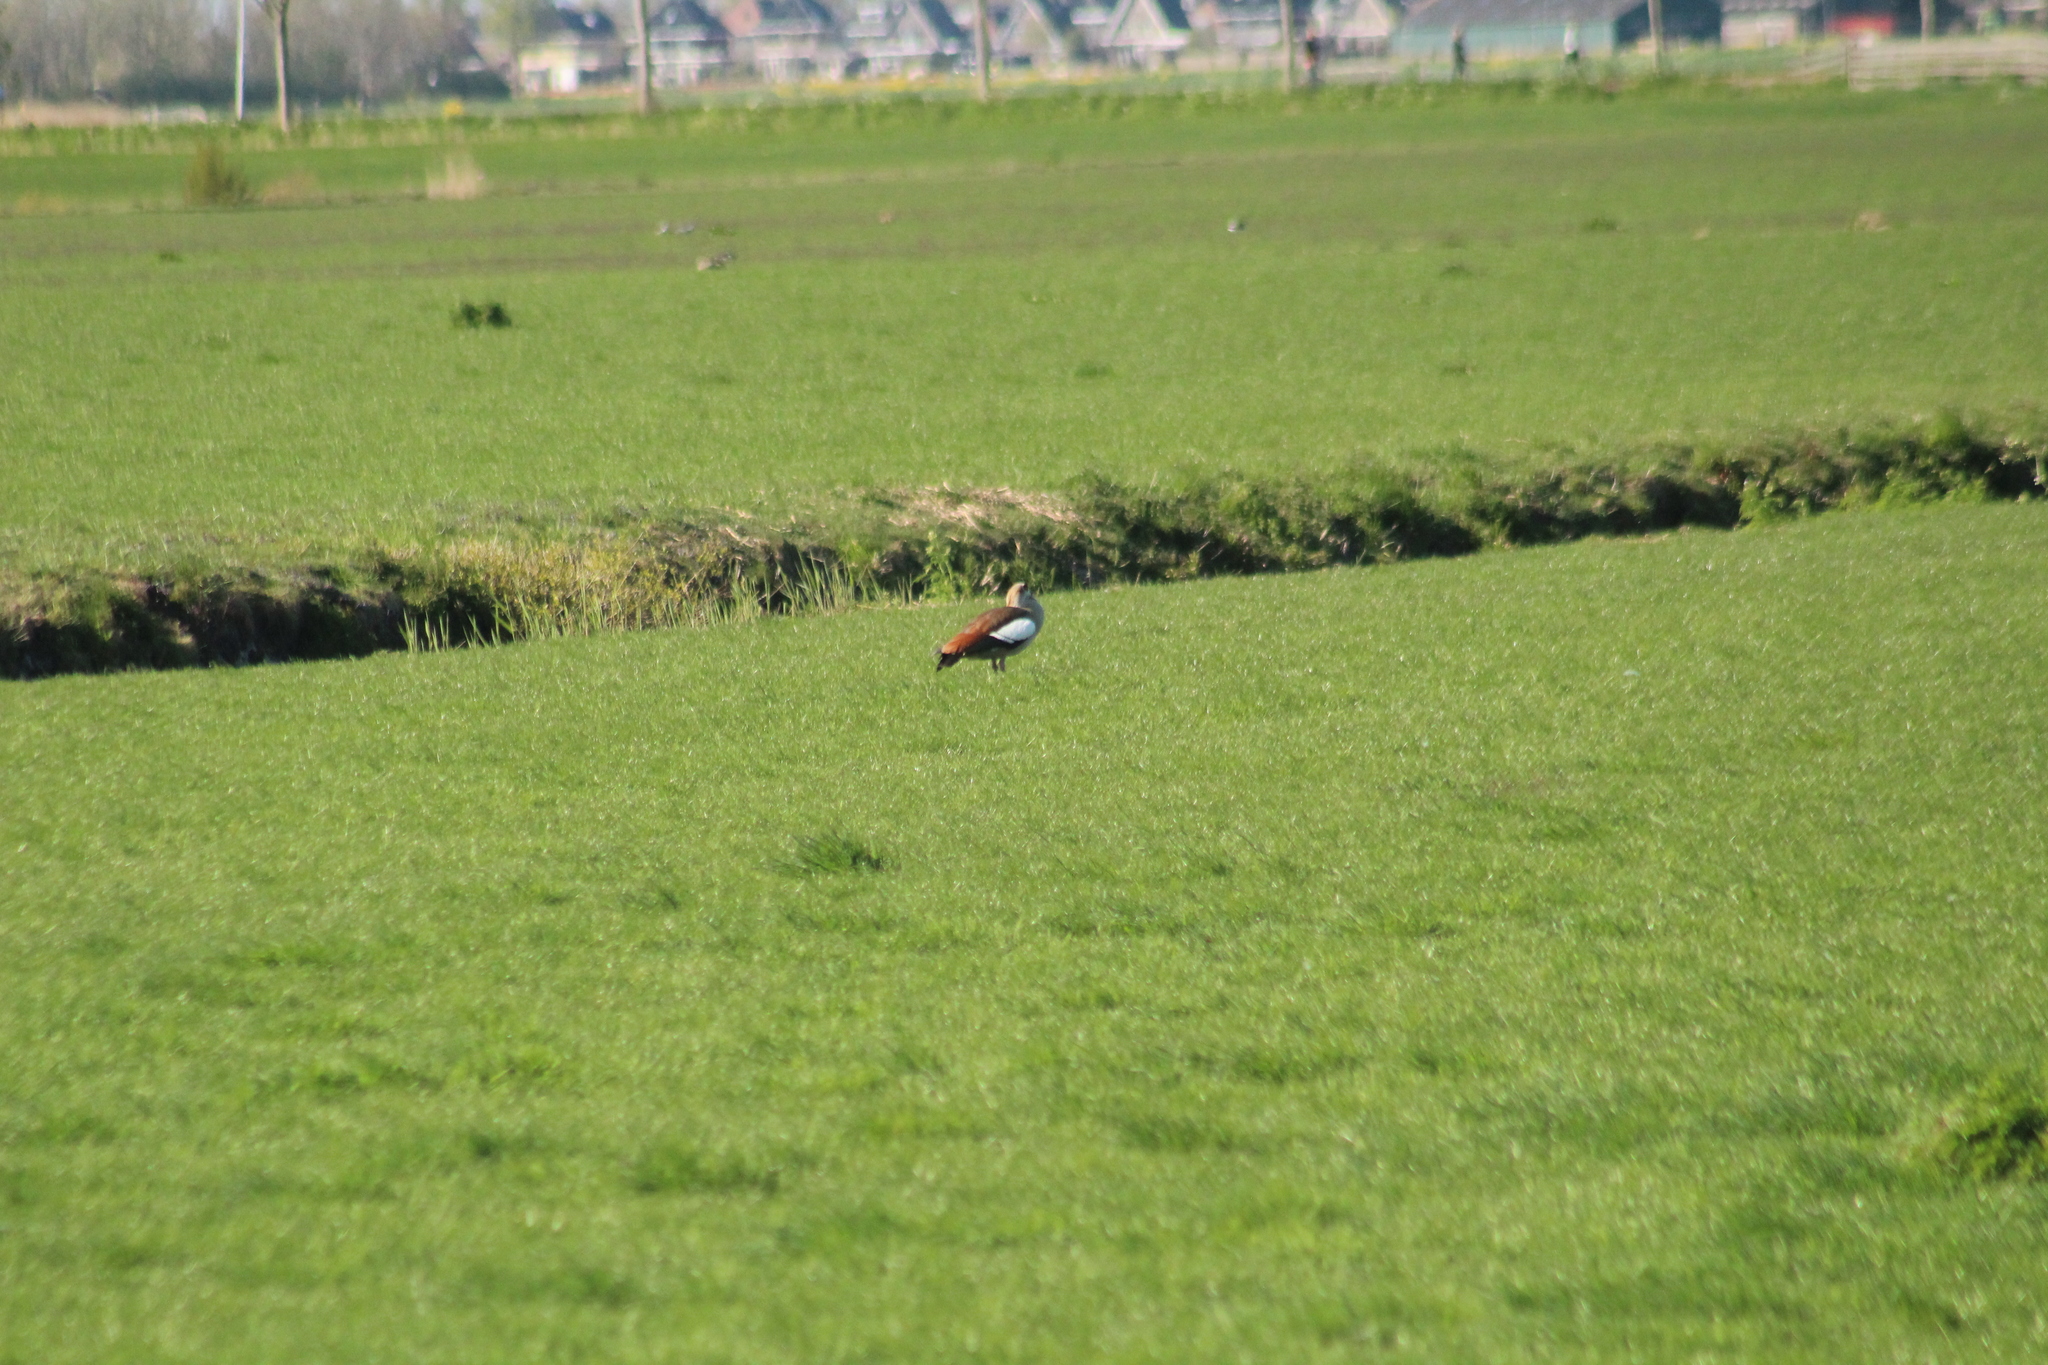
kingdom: Animalia
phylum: Chordata
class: Aves
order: Anseriformes
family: Anatidae
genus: Alopochen
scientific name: Alopochen aegyptiaca
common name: Egyptian goose
